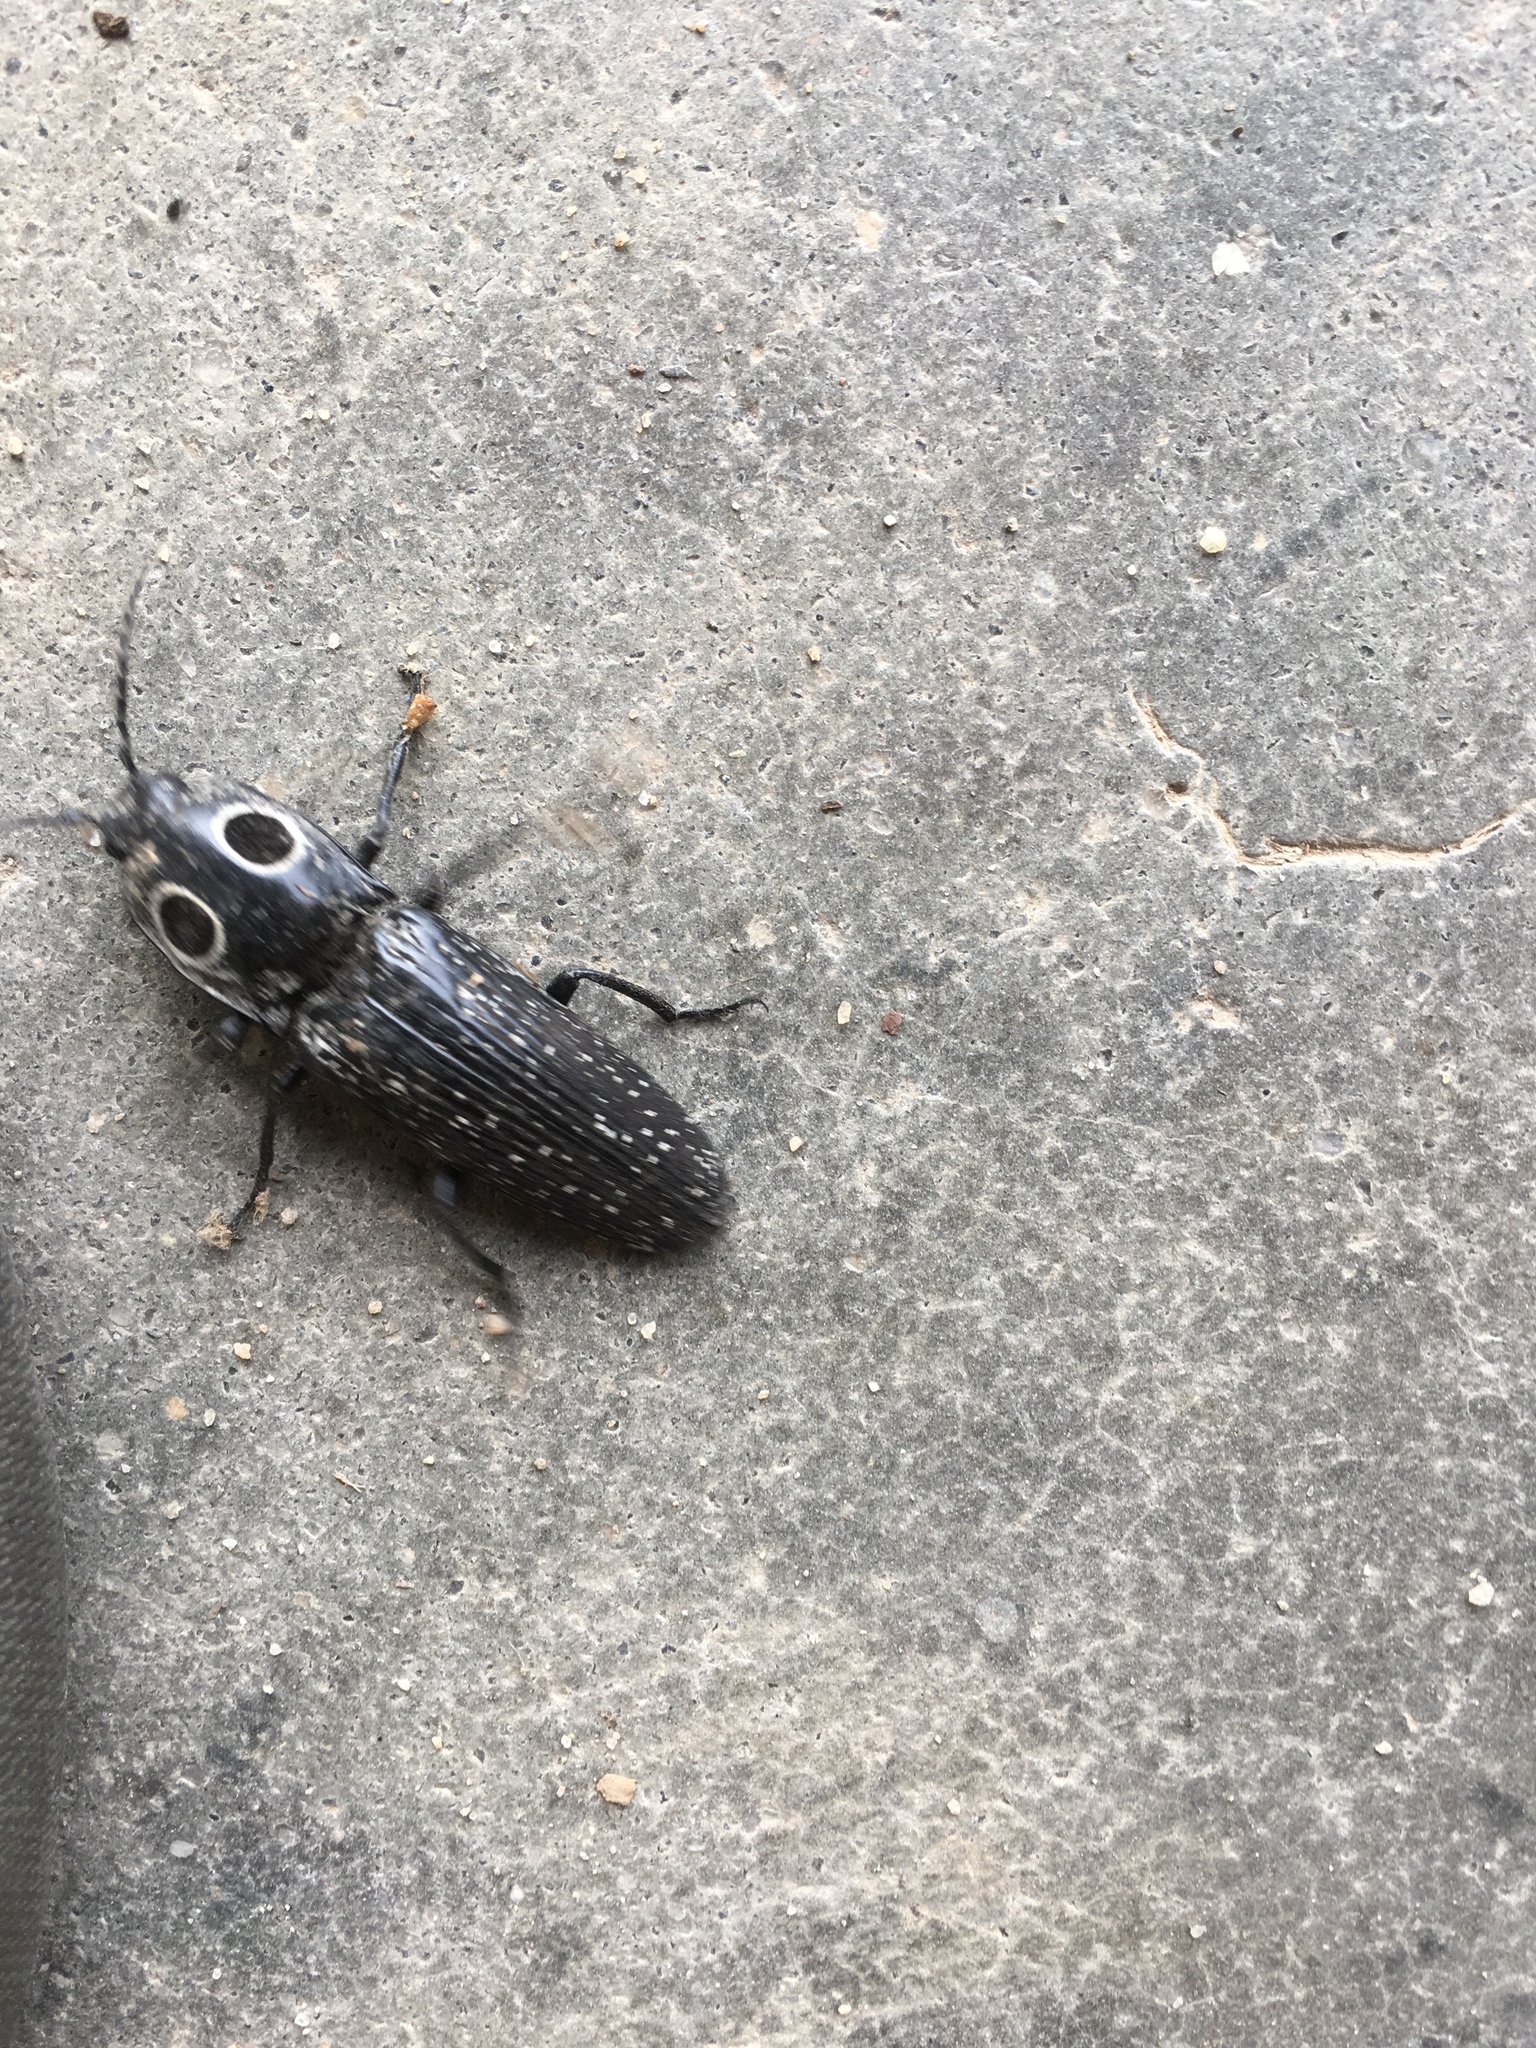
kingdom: Animalia
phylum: Arthropoda
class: Insecta
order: Coleoptera
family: Elateridae
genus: Alaus
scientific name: Alaus oculatus
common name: Eastern eyed click beetle
